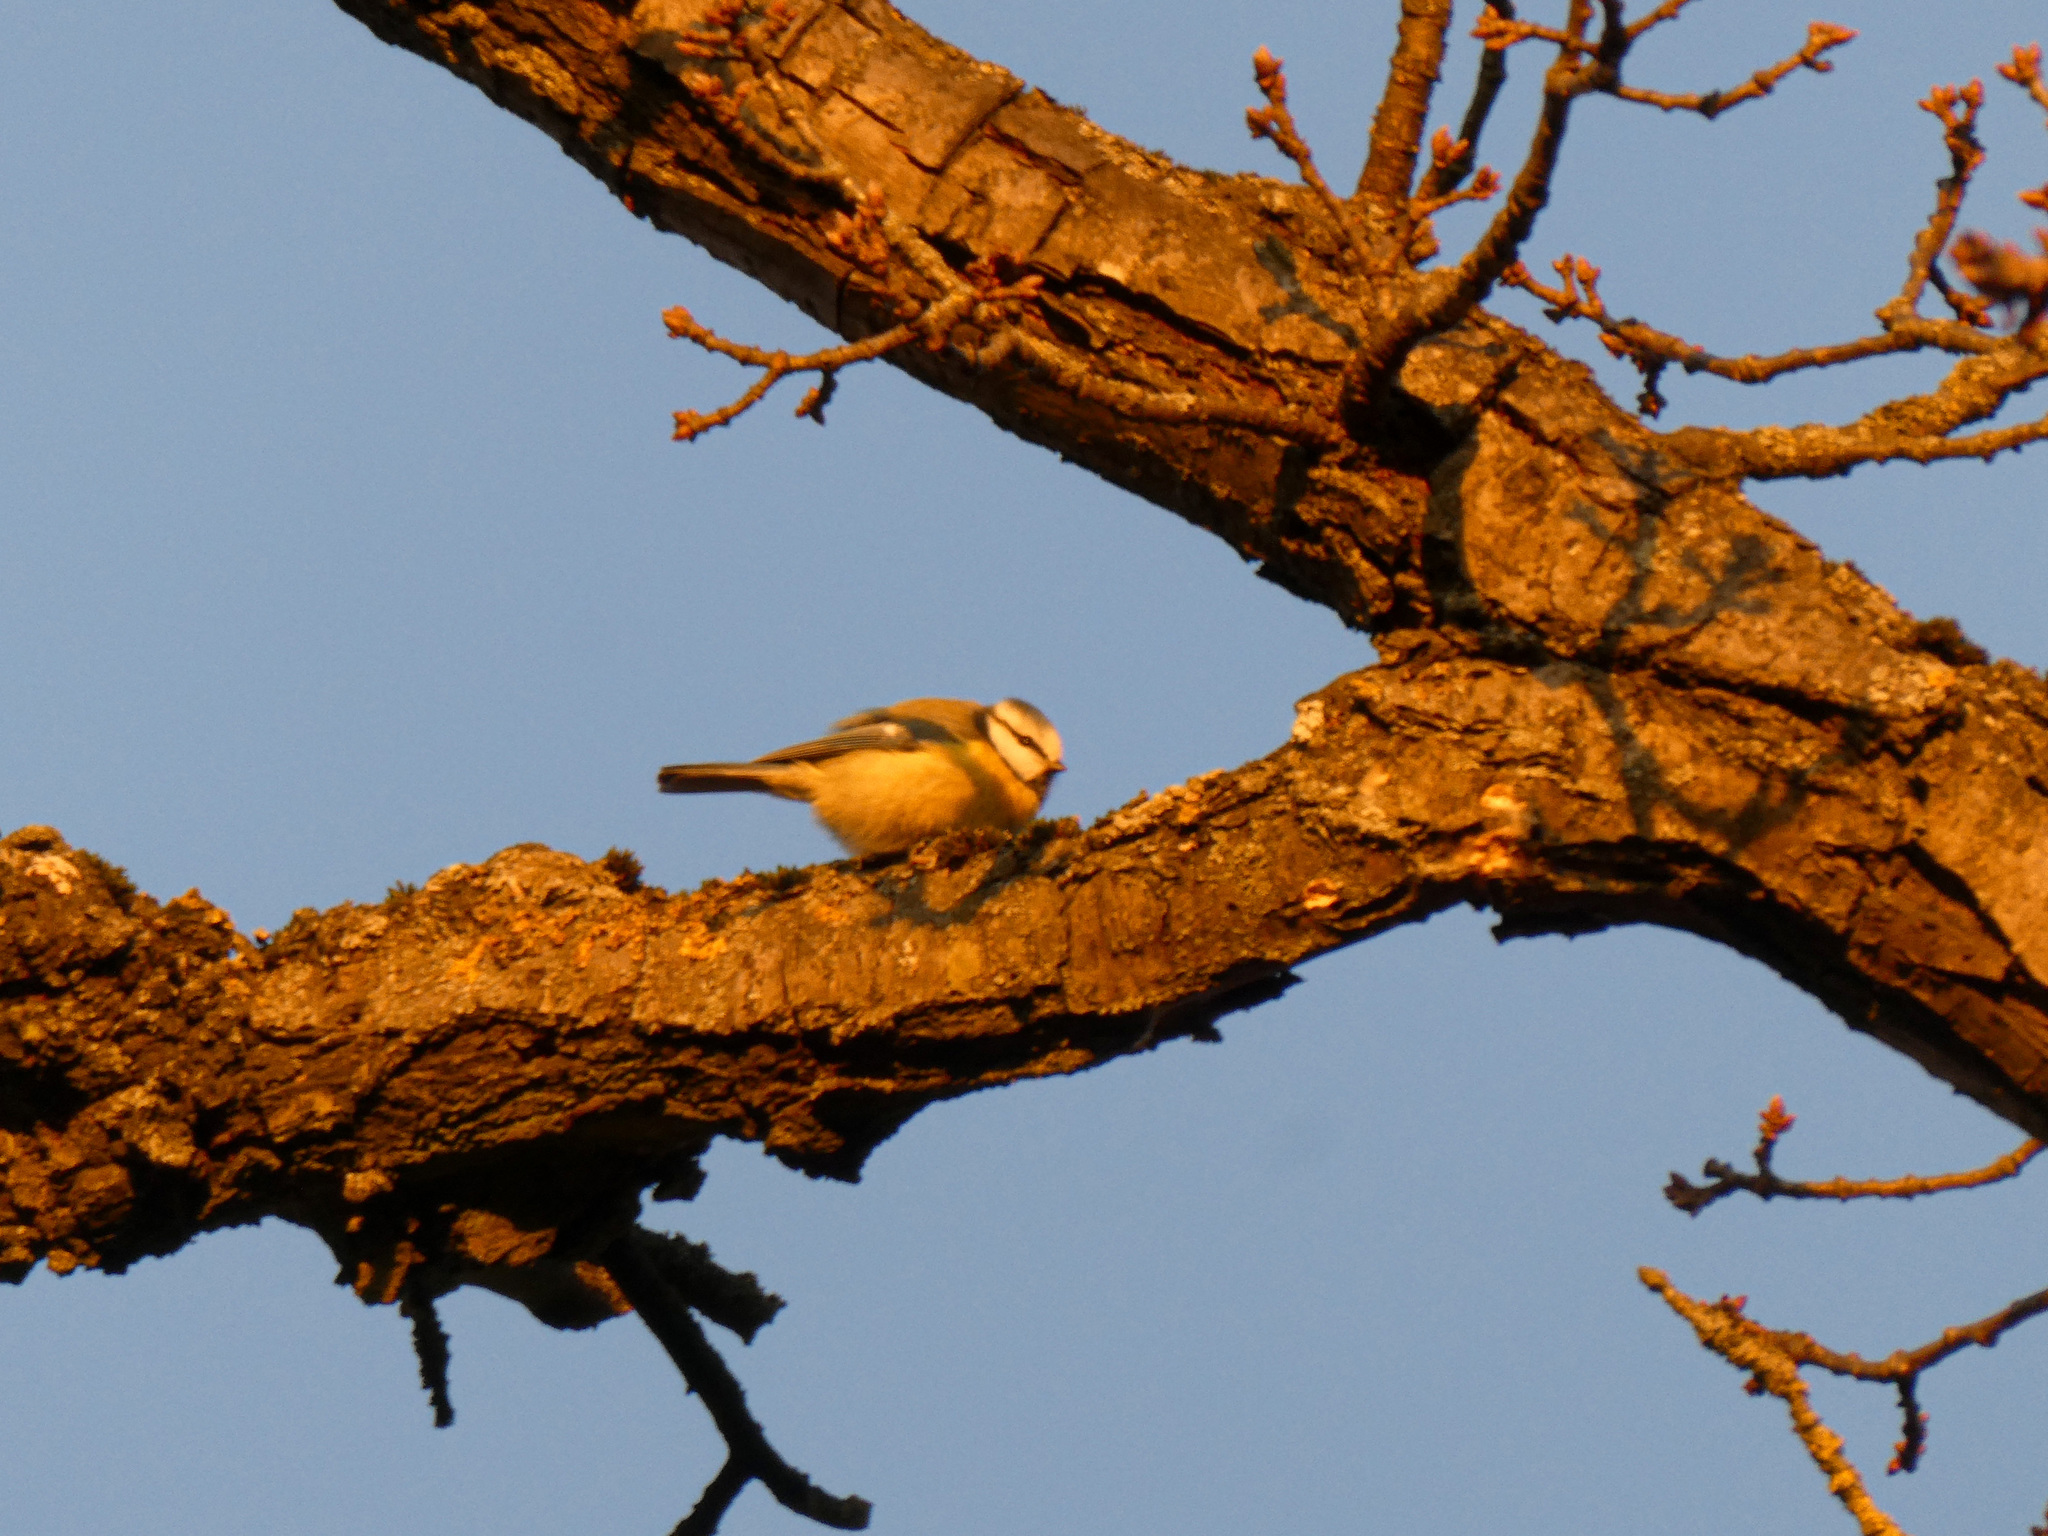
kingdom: Animalia
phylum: Chordata
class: Aves
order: Passeriformes
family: Paridae
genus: Cyanistes
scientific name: Cyanistes caeruleus
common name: Eurasian blue tit
